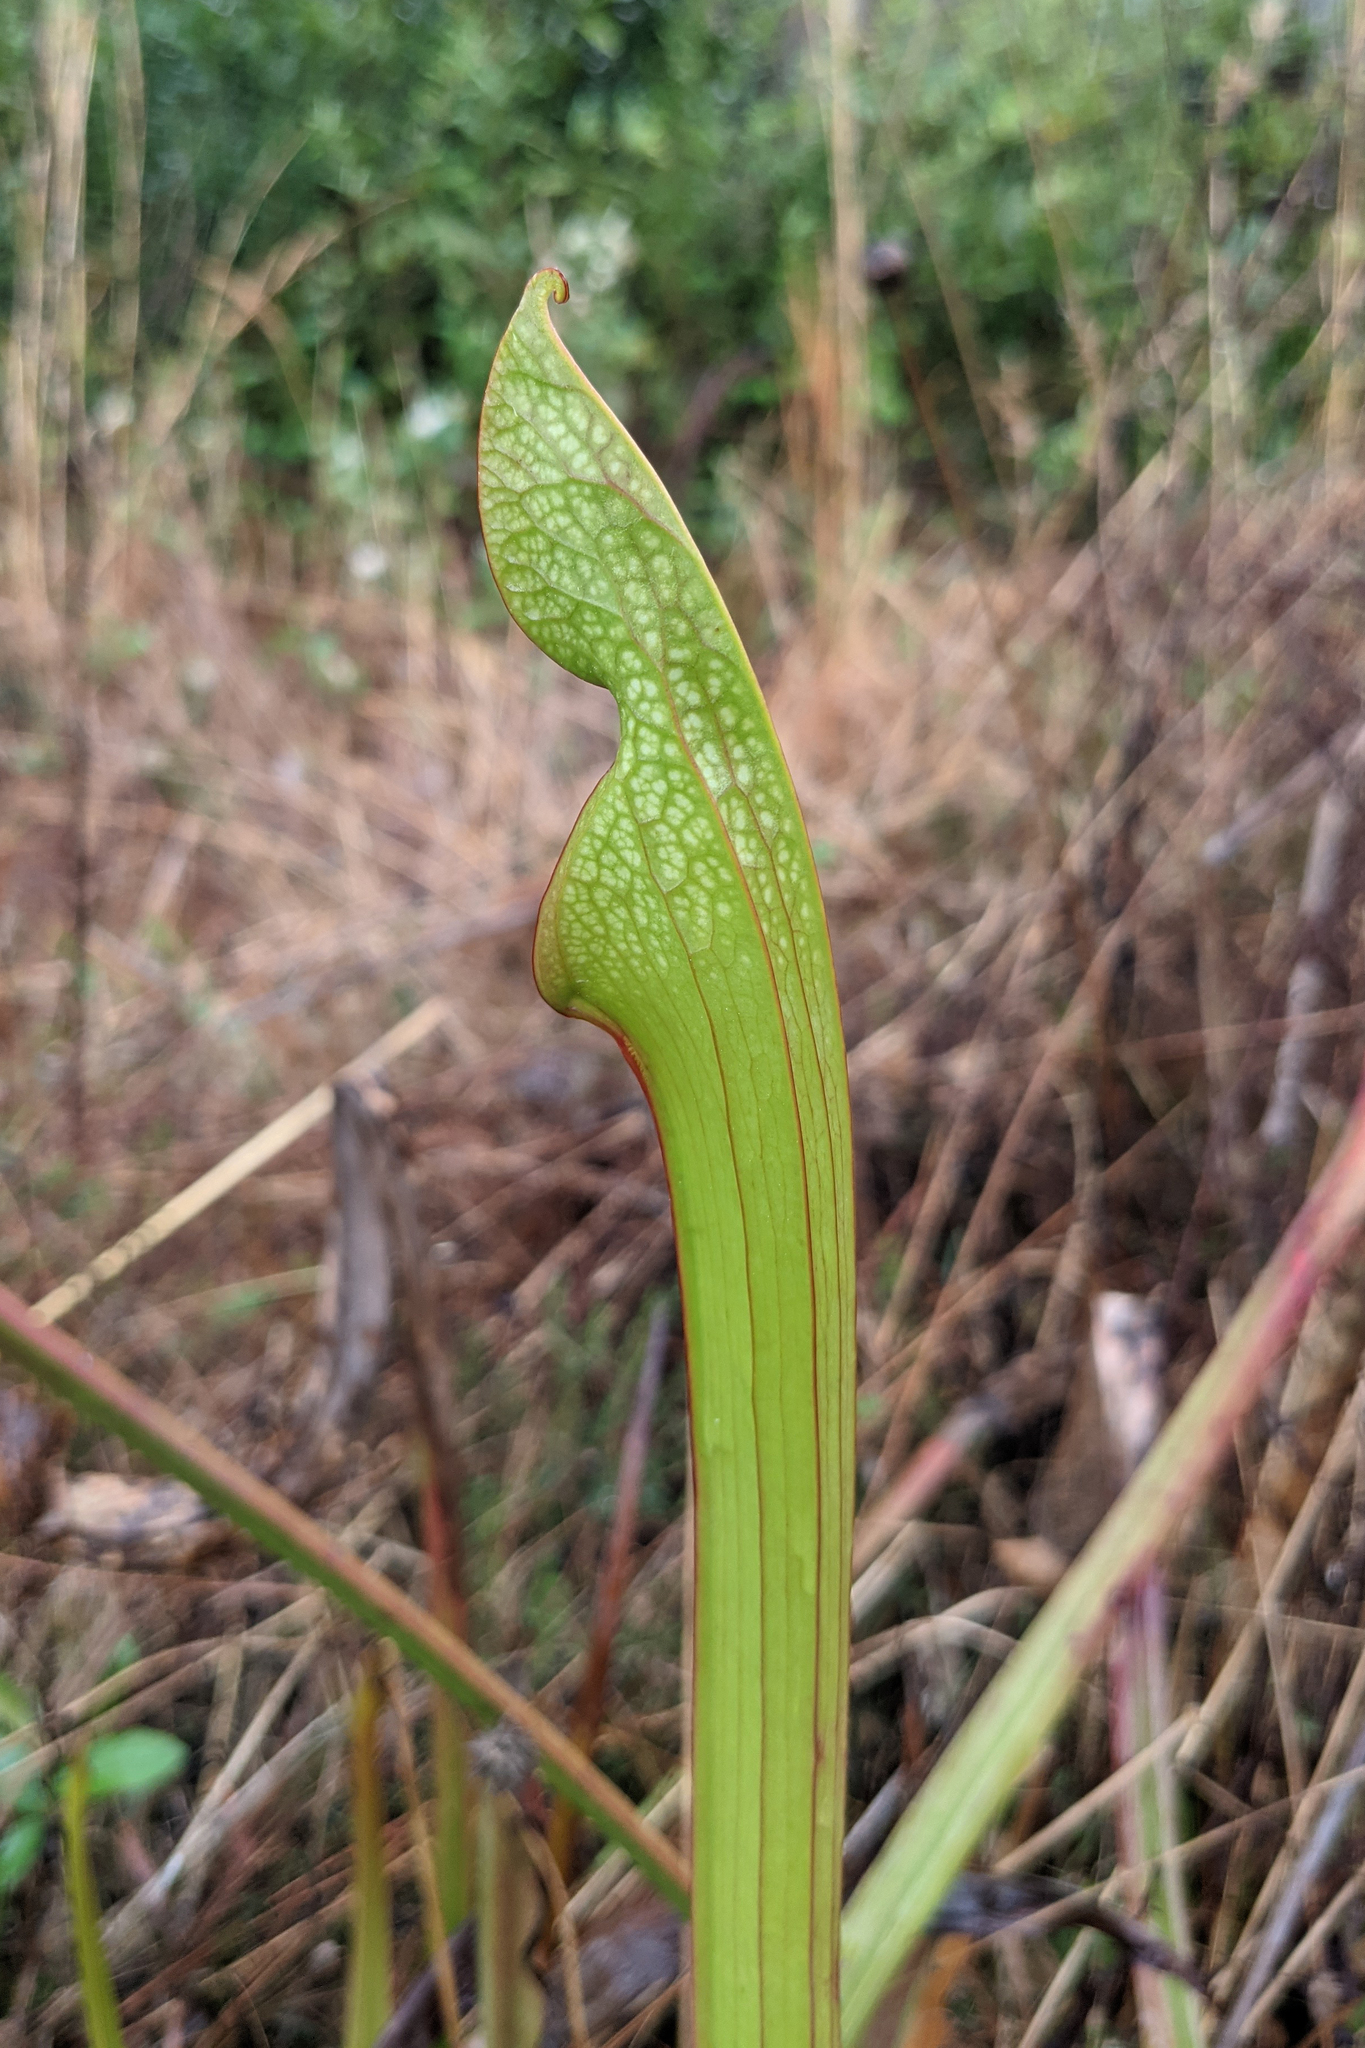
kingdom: Plantae
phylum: Tracheophyta
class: Magnoliopsida
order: Ericales
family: Sarraceniaceae
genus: Sarracenia
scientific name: Sarracenia leucophylla
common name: Purple trumpetleaf
